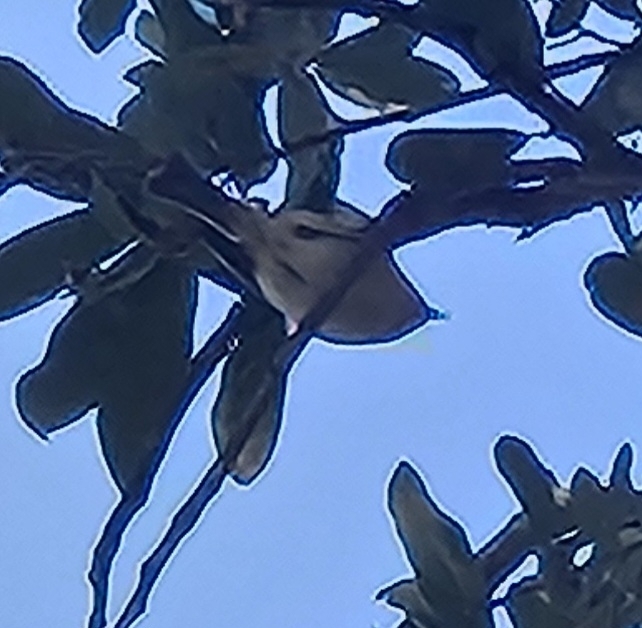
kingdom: Animalia
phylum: Chordata
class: Aves
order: Passeriformes
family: Regulidae
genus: Regulus
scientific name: Regulus calendula
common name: Ruby-crowned kinglet
